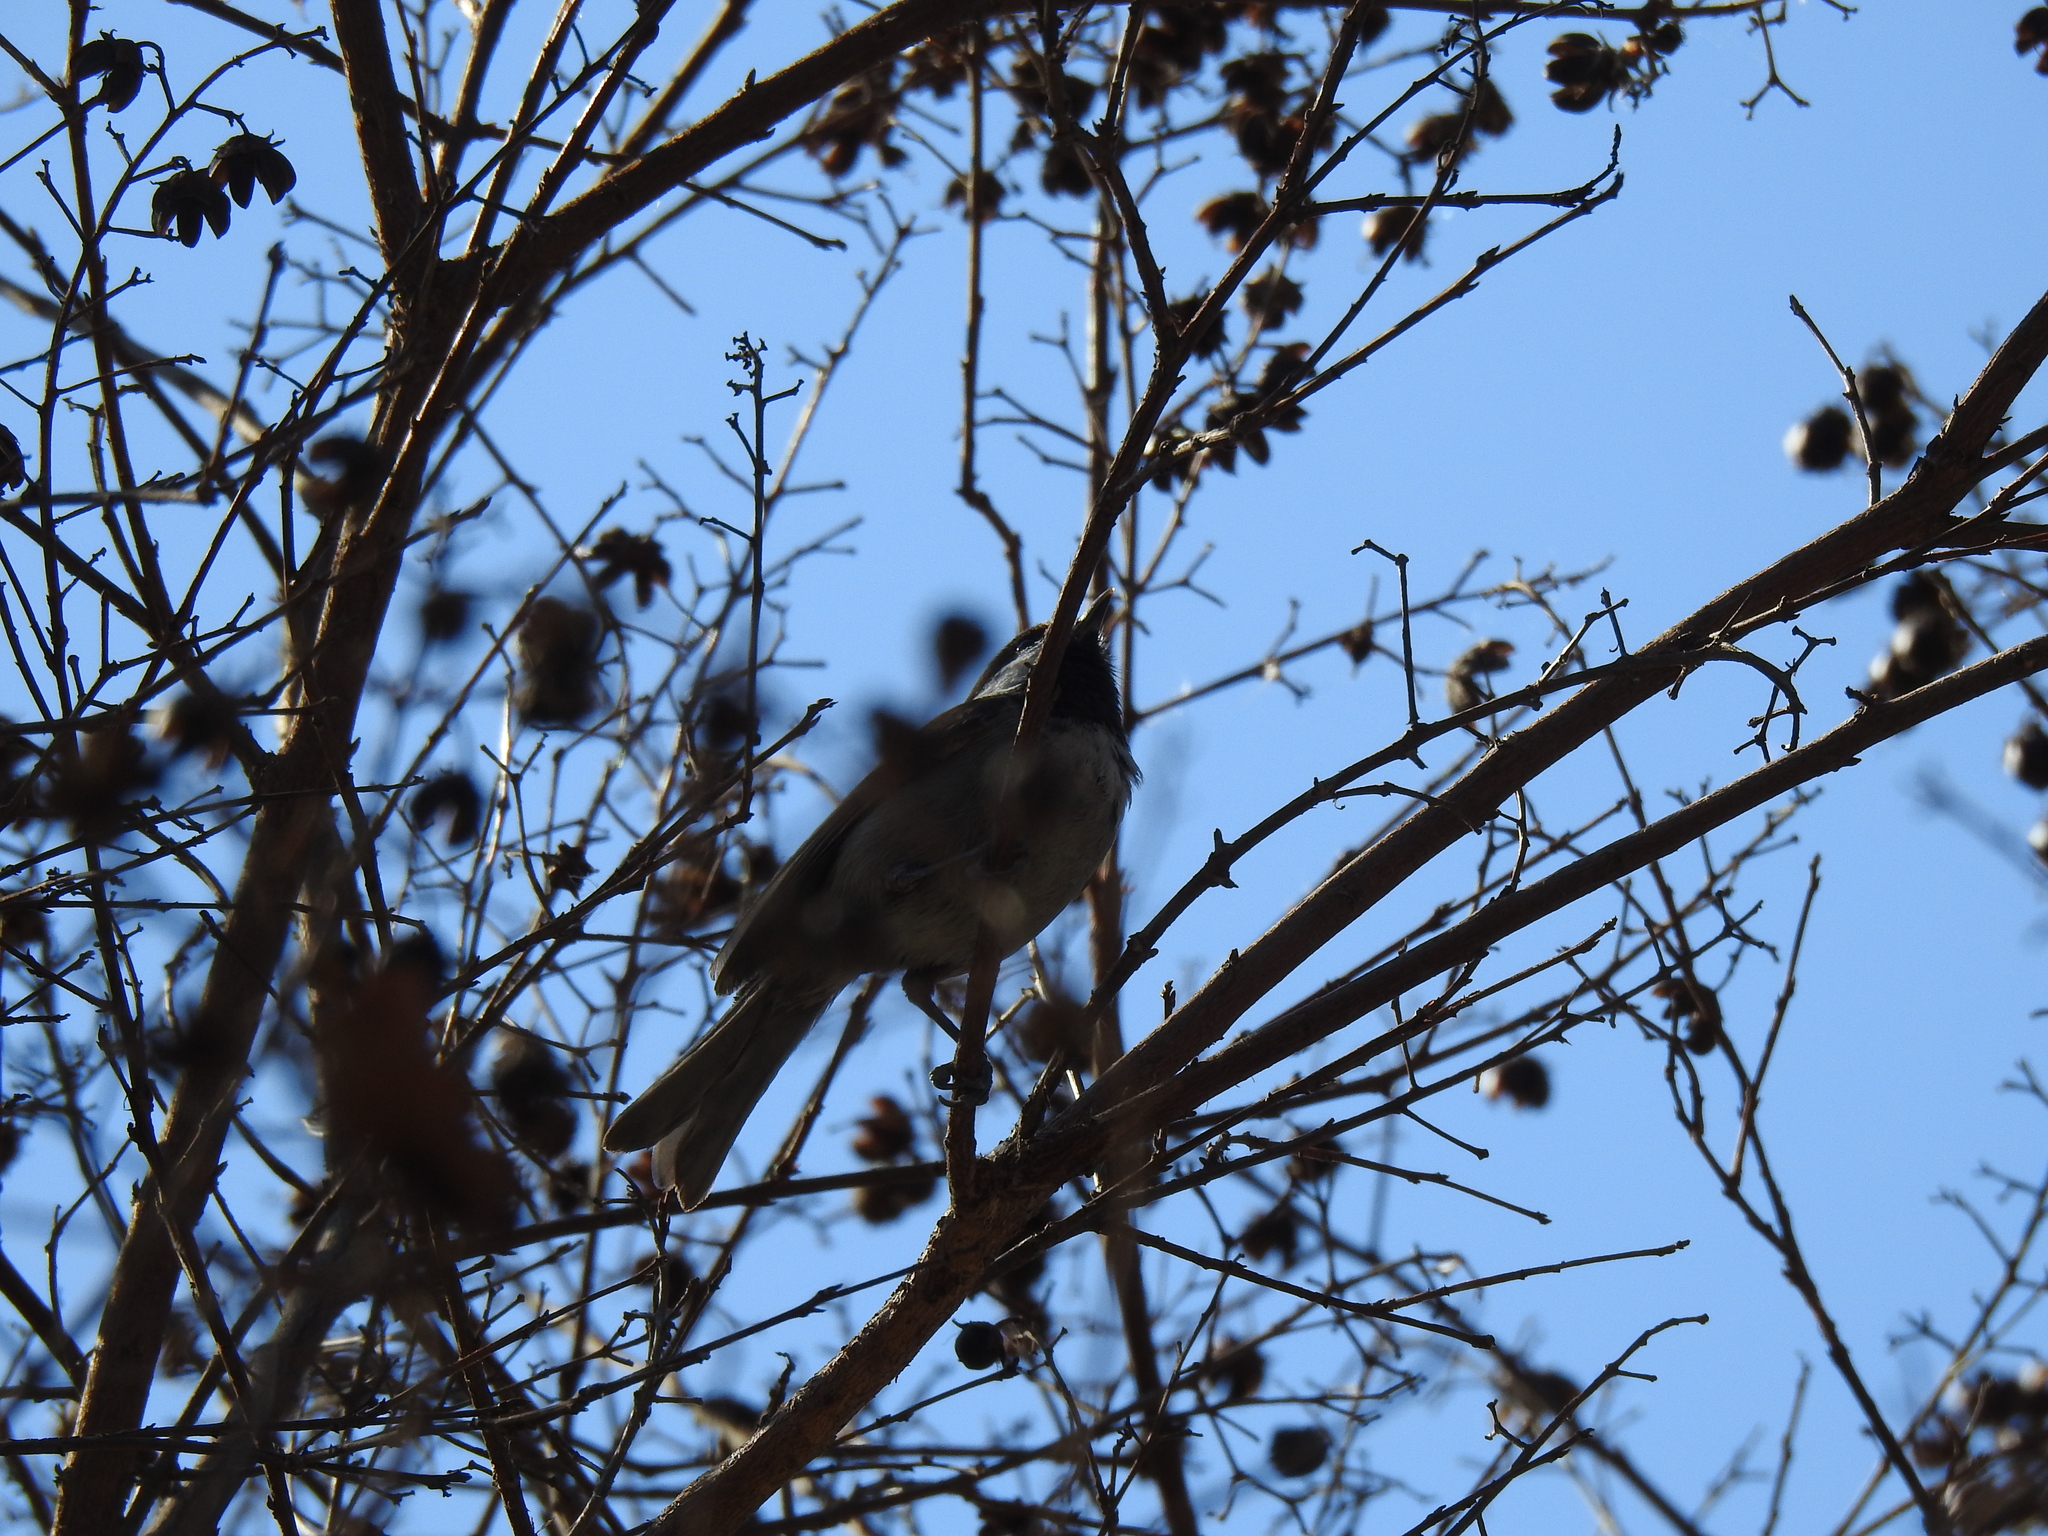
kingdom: Animalia
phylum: Chordata
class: Aves
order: Passeriformes
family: Paridae
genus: Poecile
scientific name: Poecile rufescens
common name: Chestnut-backed chickadee
